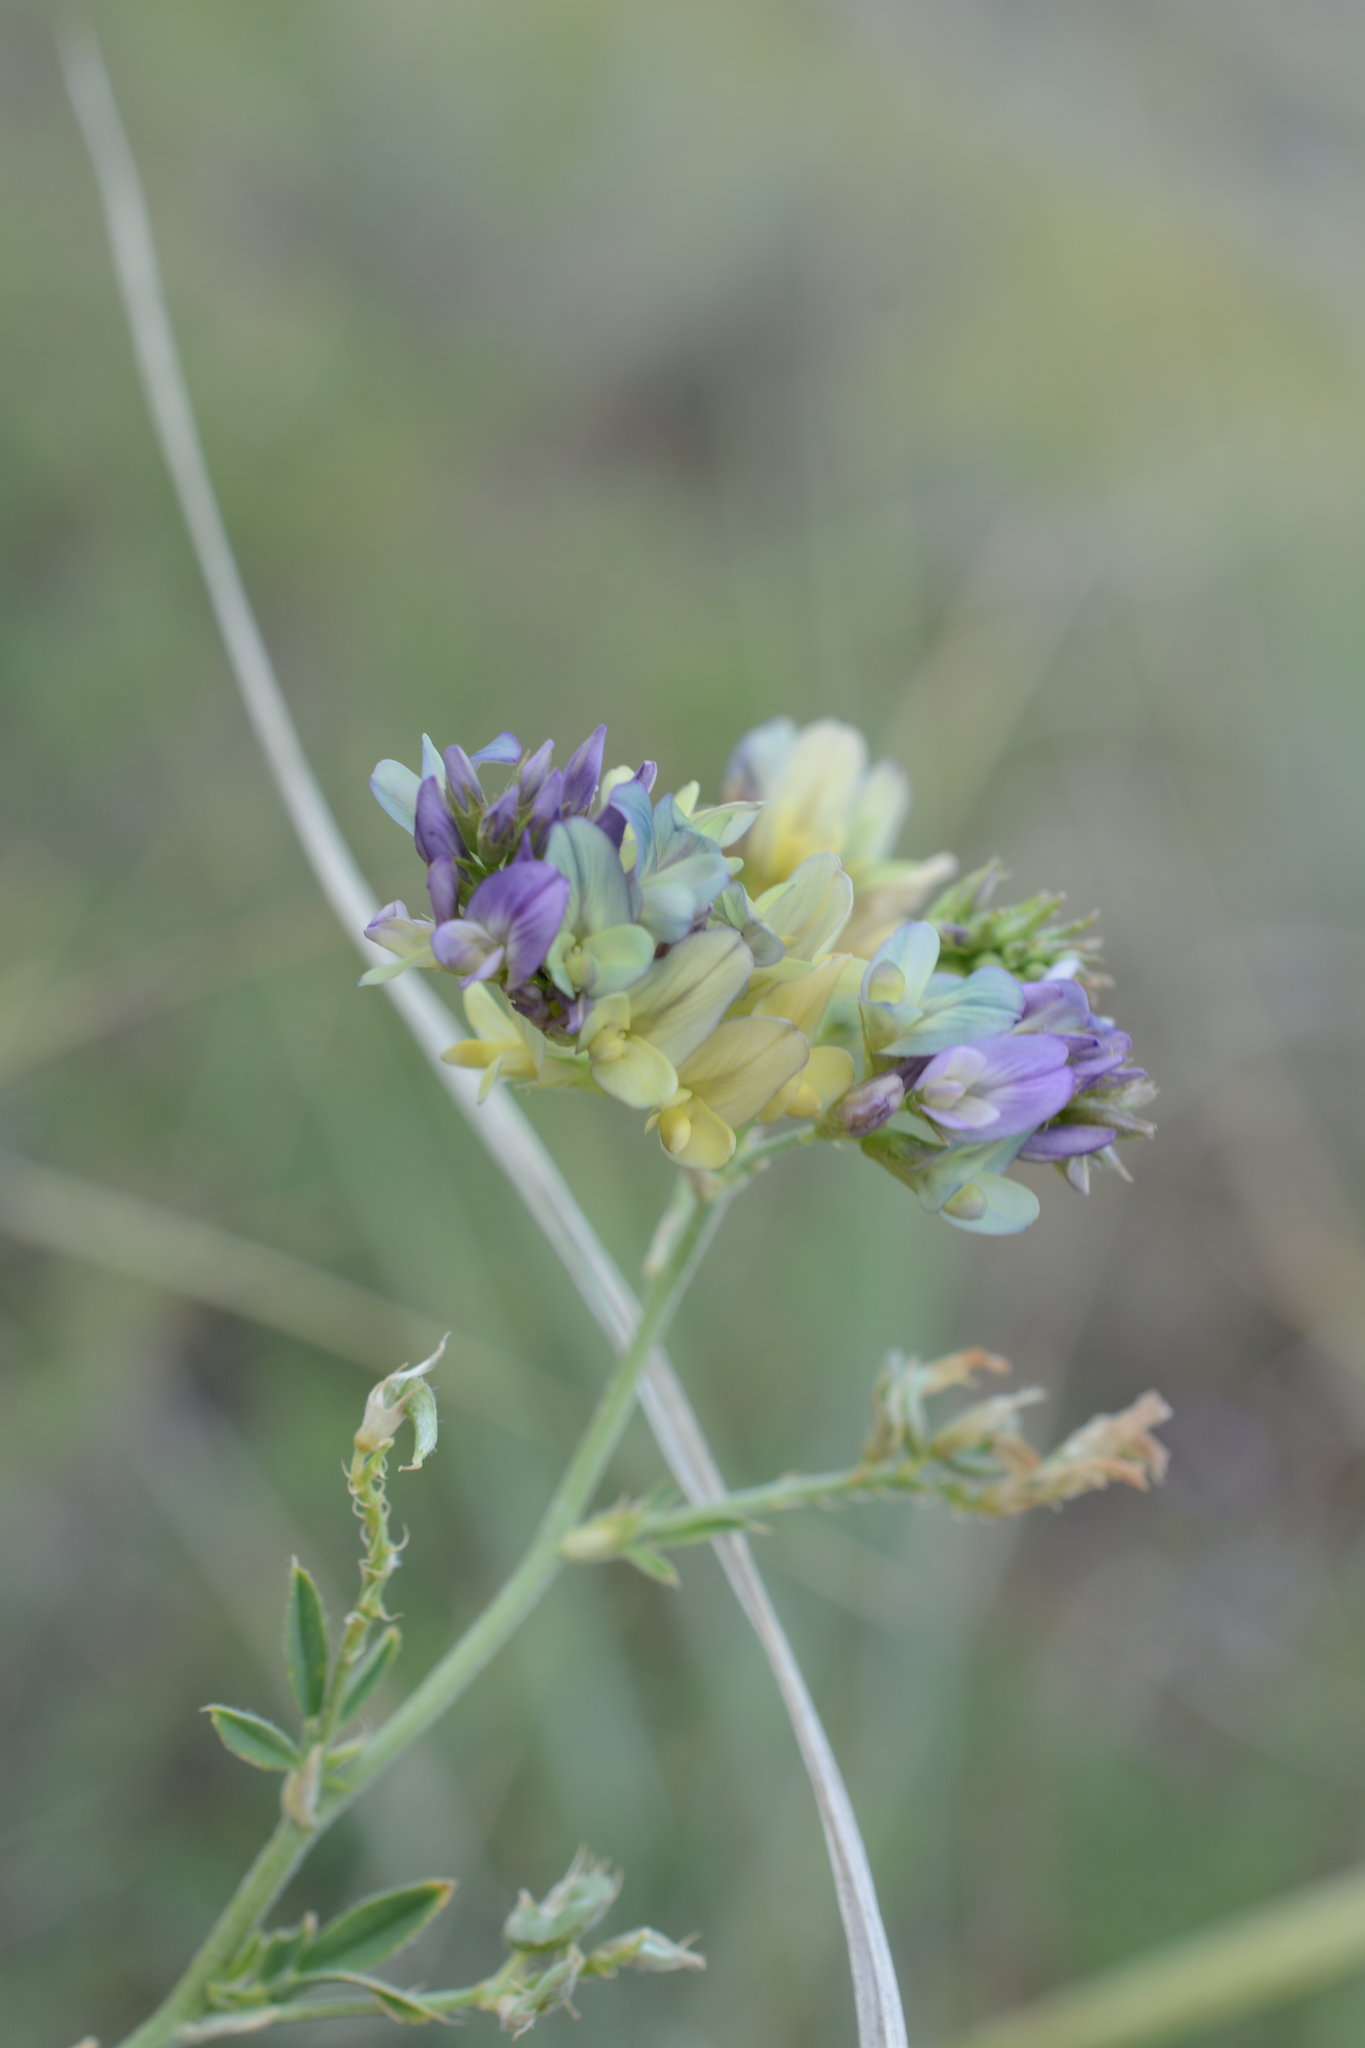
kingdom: Plantae
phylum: Tracheophyta
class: Magnoliopsida
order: Fabales
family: Fabaceae
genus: Medicago
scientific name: Medicago varia
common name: Sand lucerne
